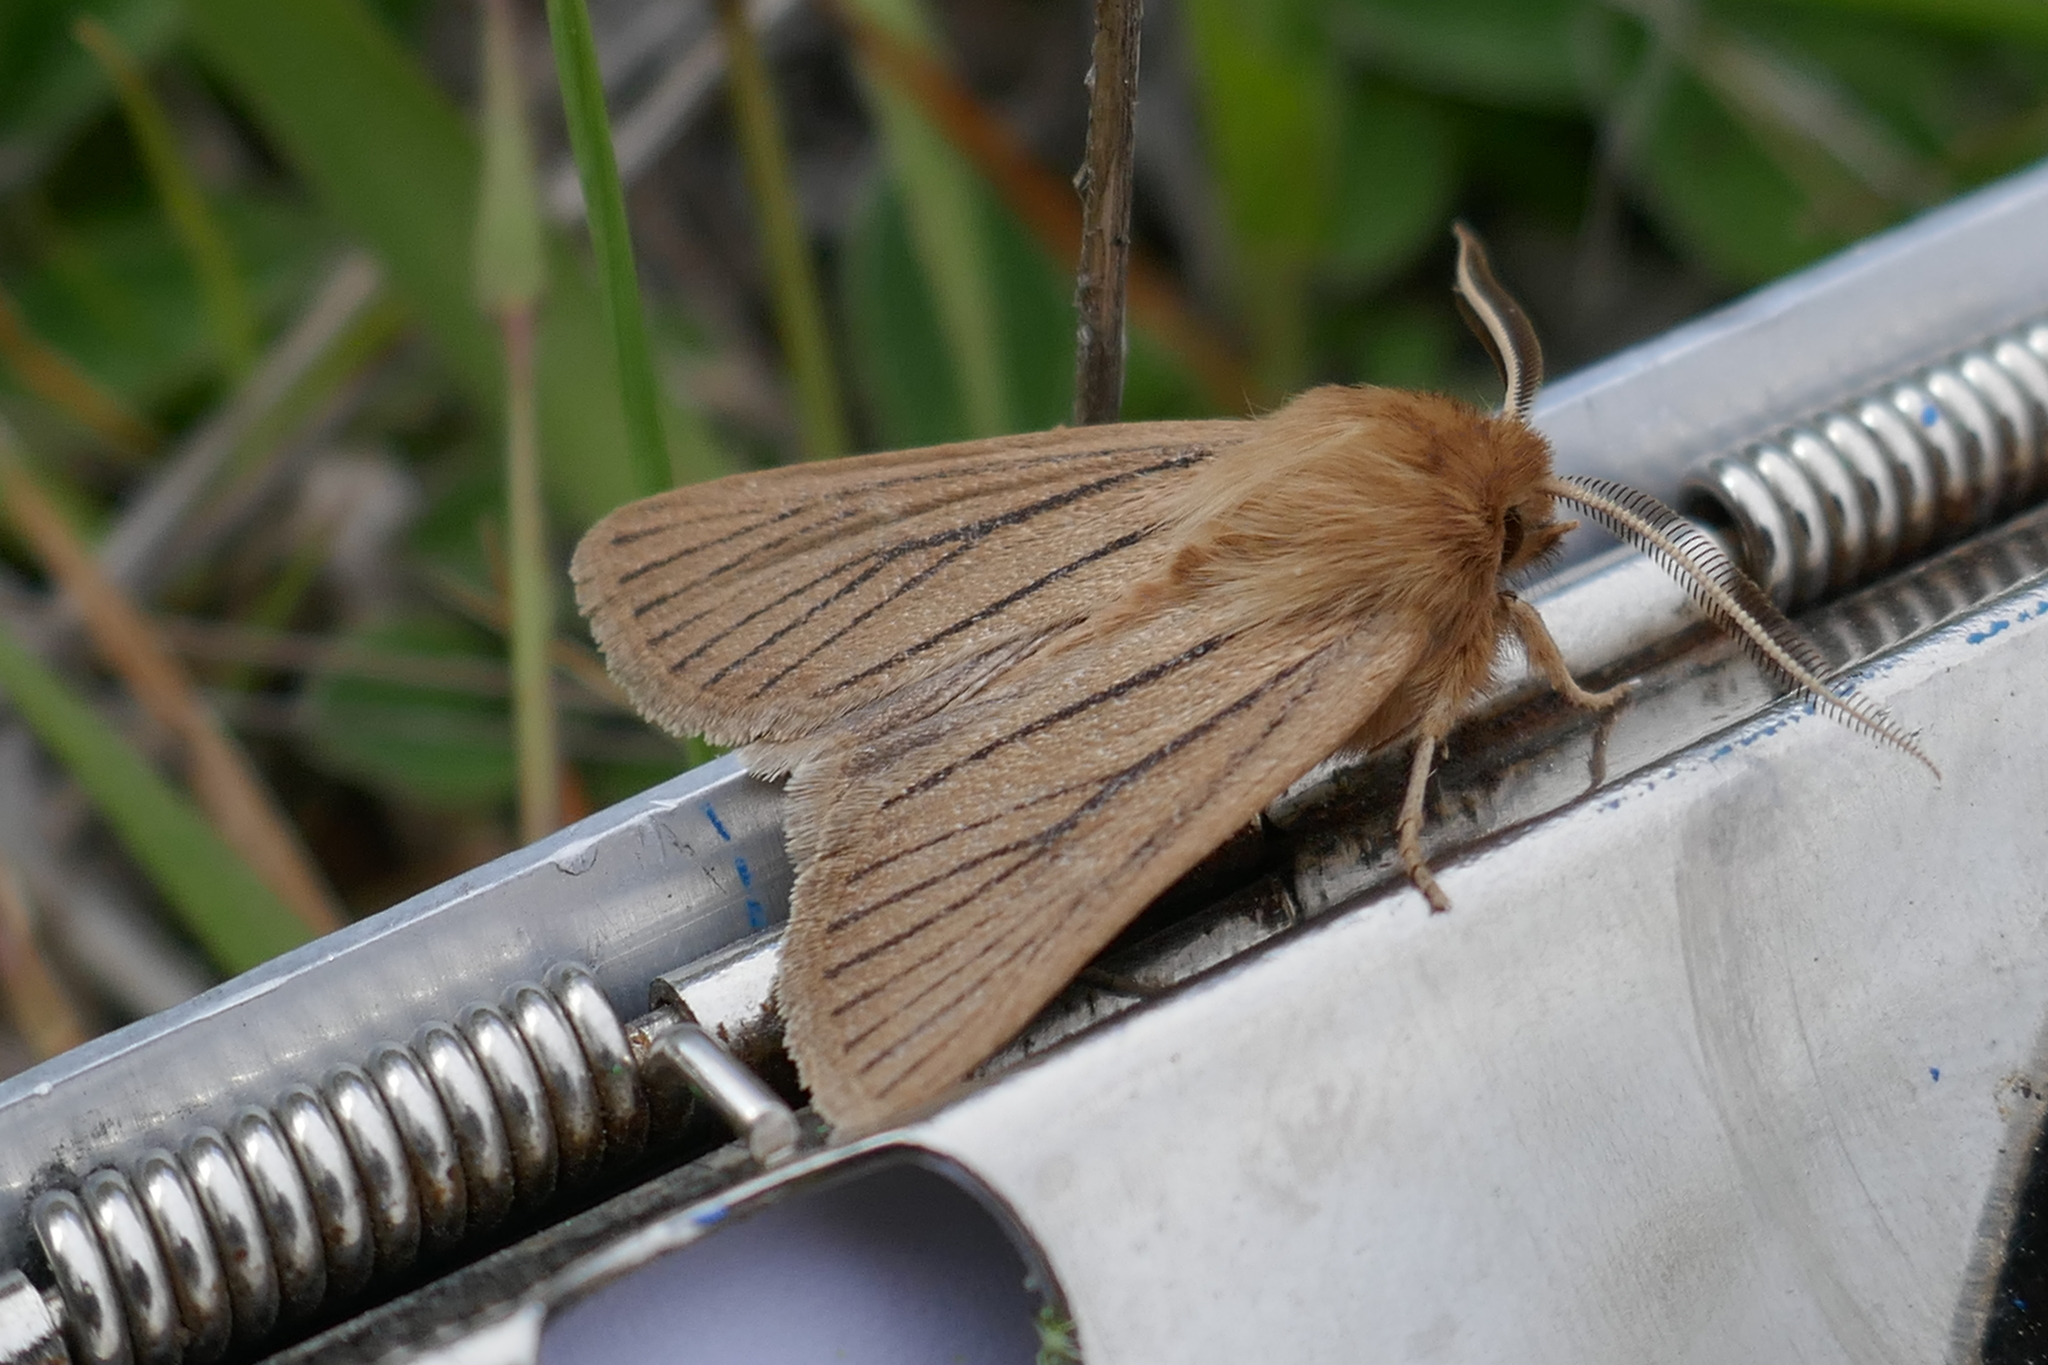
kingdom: Animalia
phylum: Arthropoda
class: Insecta
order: Lepidoptera
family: Noctuidae
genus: Ichneutica
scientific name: Ichneutica
